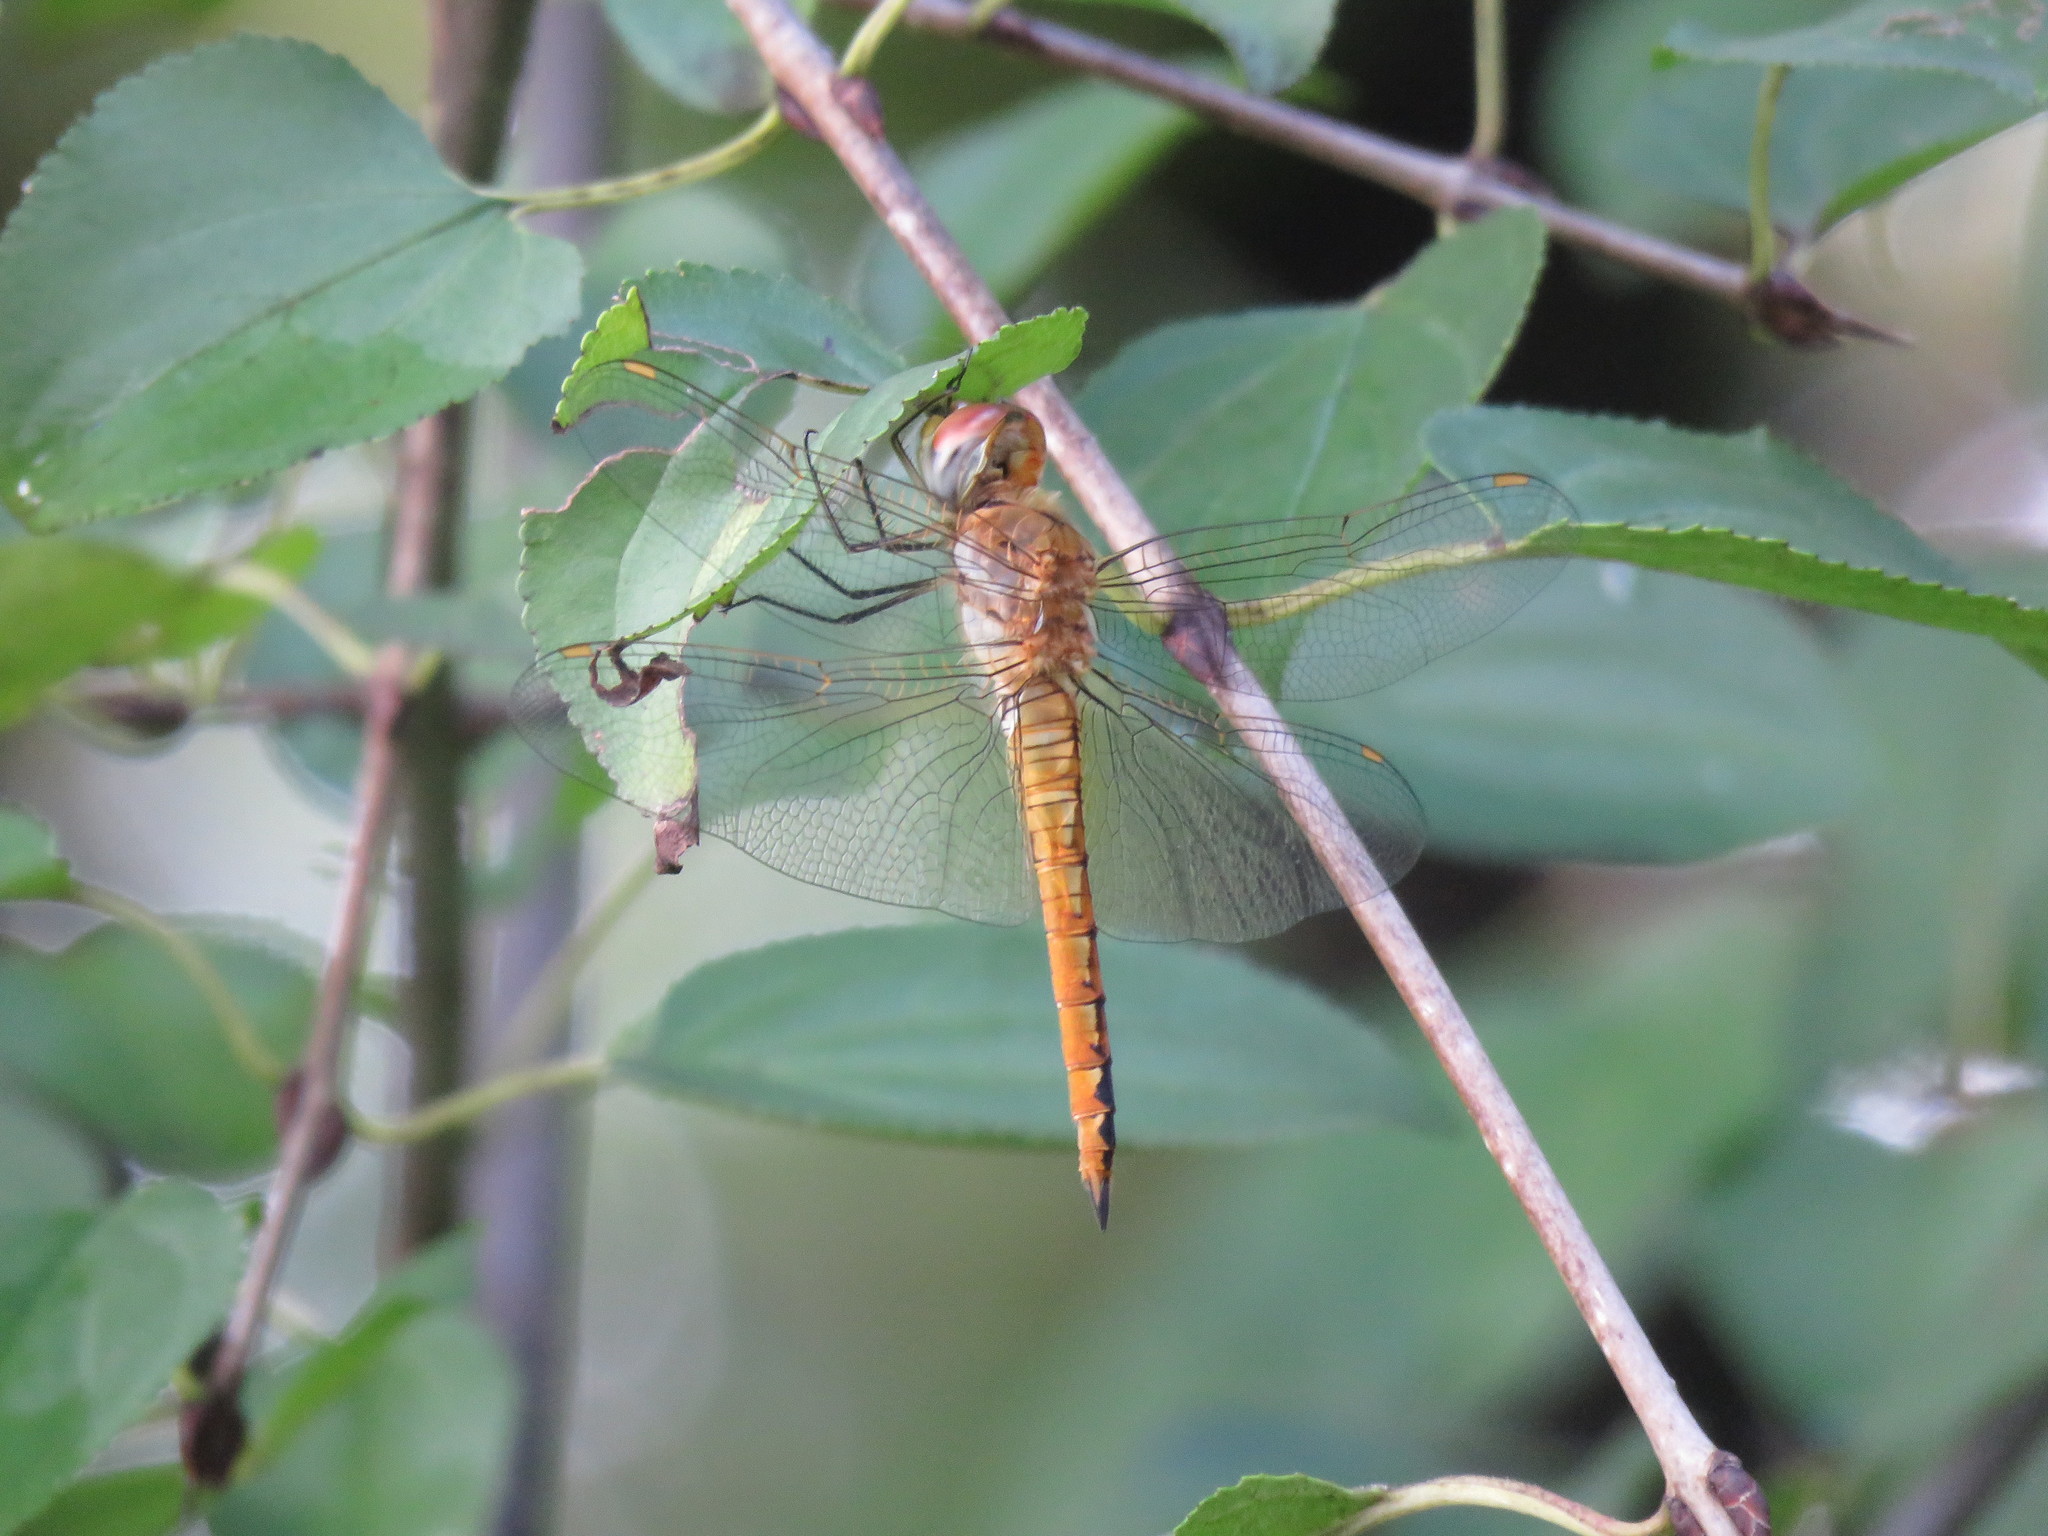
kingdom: Animalia
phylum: Arthropoda
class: Insecta
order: Odonata
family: Libellulidae
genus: Pantala
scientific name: Pantala flavescens
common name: Wandering glider
